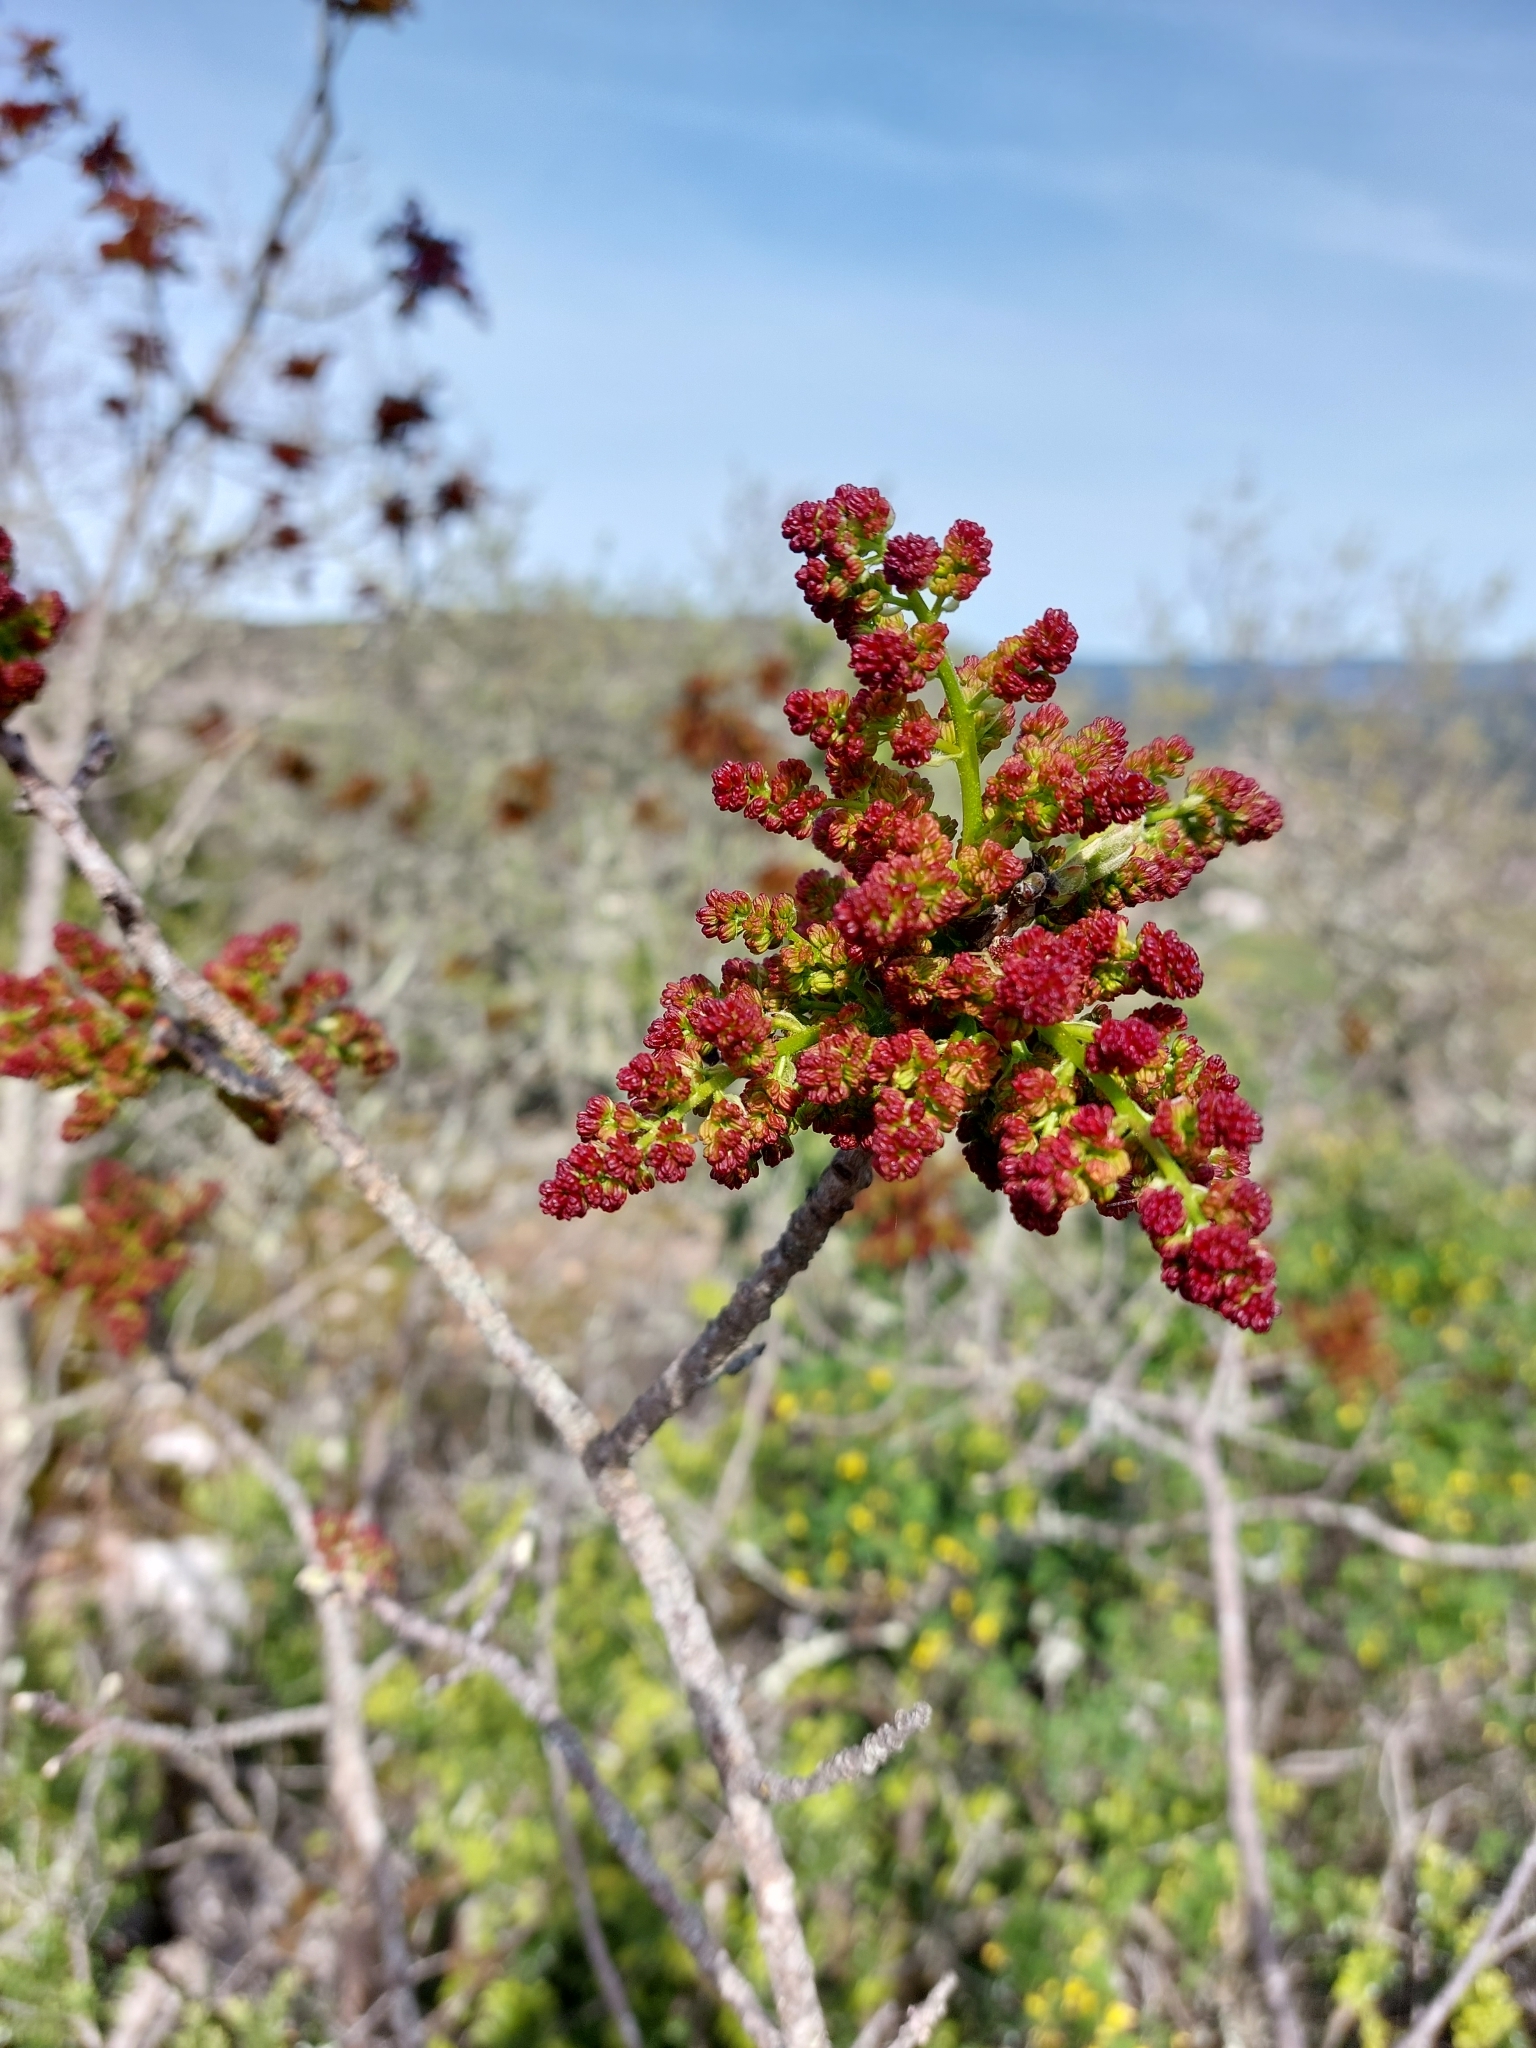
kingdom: Plantae
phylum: Tracheophyta
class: Magnoliopsida
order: Sapindales
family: Anacardiaceae
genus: Pistacia
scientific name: Pistacia terebinthus
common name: Terebinth
